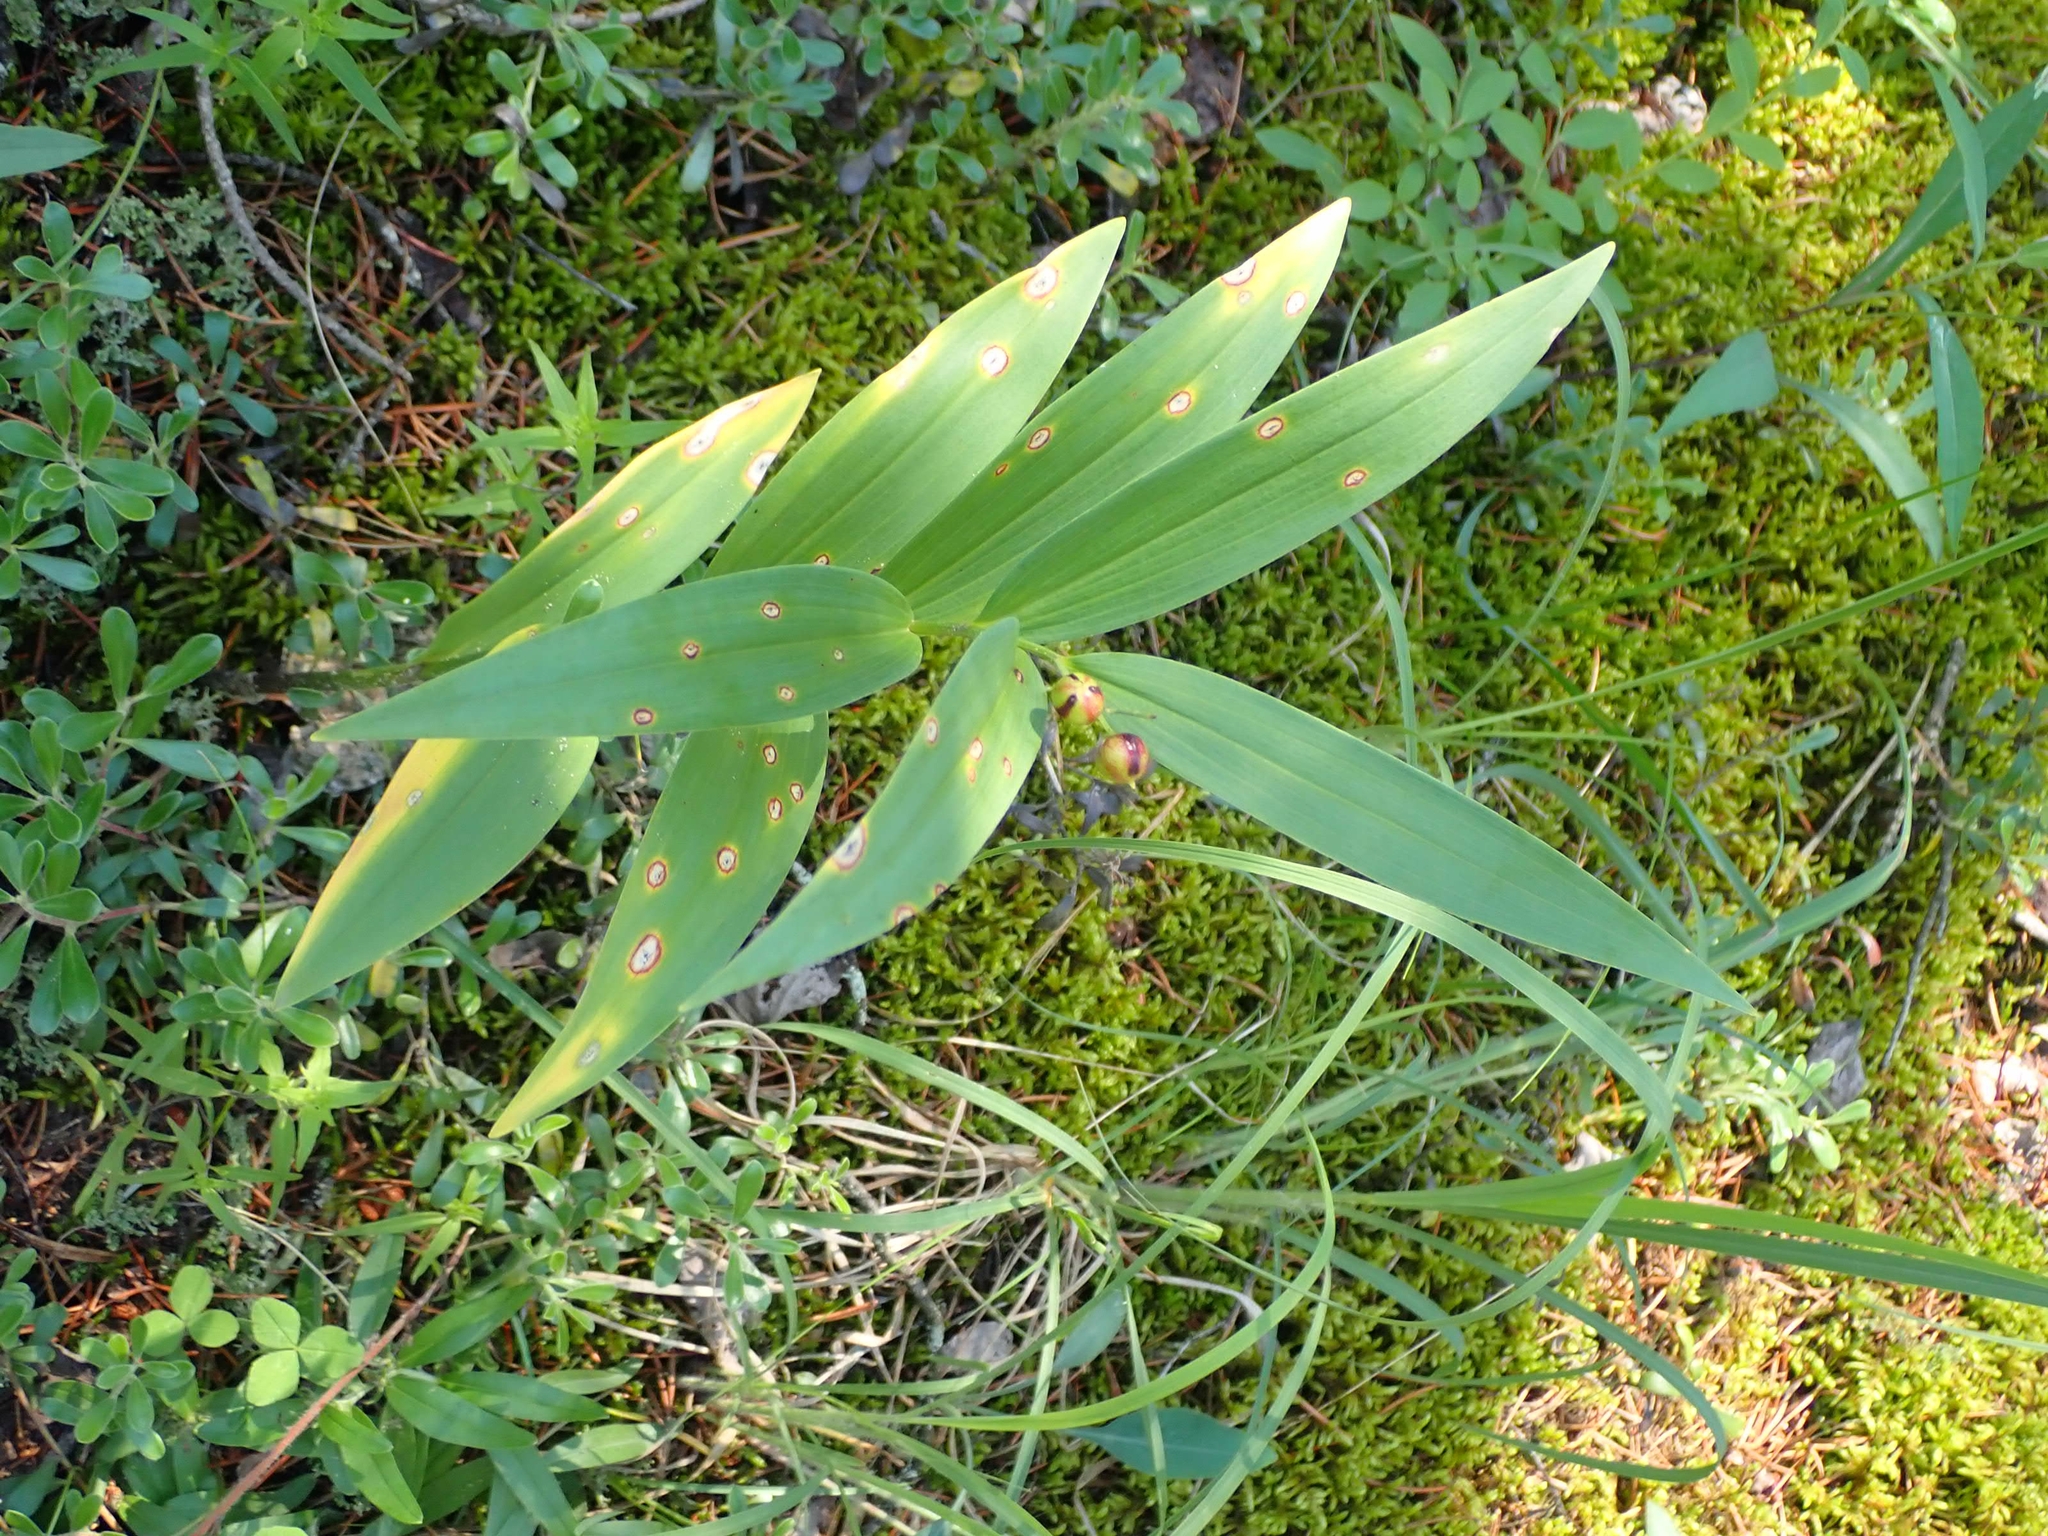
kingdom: Plantae
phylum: Tracheophyta
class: Liliopsida
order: Asparagales
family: Asparagaceae
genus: Maianthemum
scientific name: Maianthemum stellatum
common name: Little false solomon's seal
